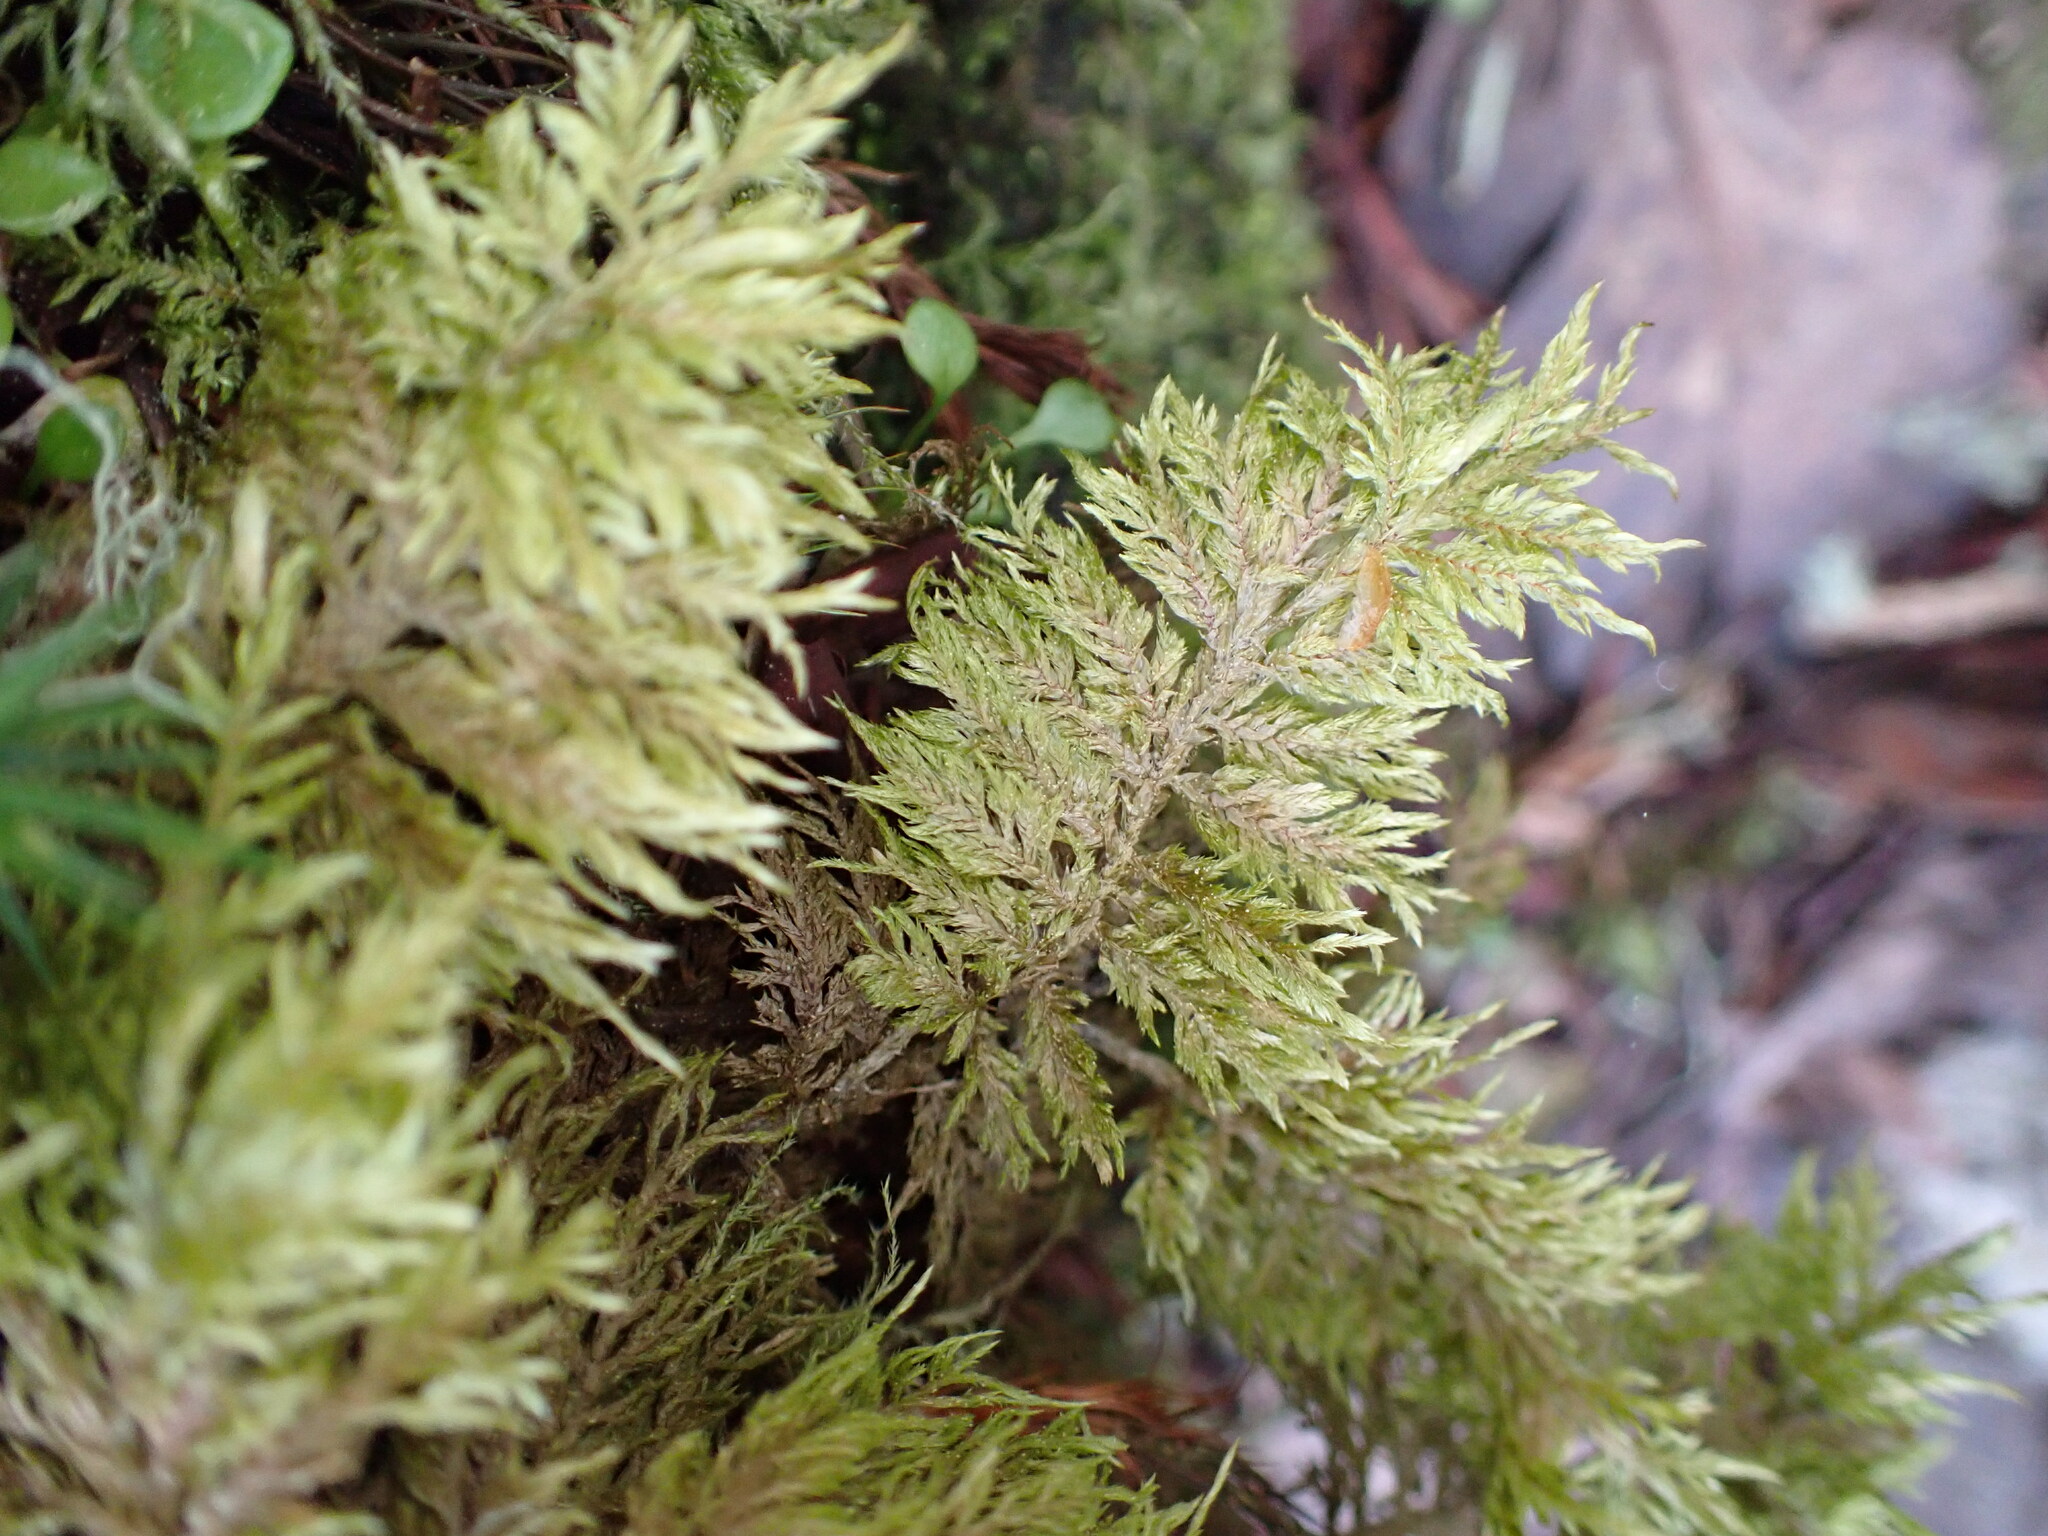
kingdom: Plantae
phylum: Bryophyta
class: Bryopsida
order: Hypnales
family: Hylocomiaceae
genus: Hylocomium
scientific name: Hylocomium splendens
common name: Stairstep moss
